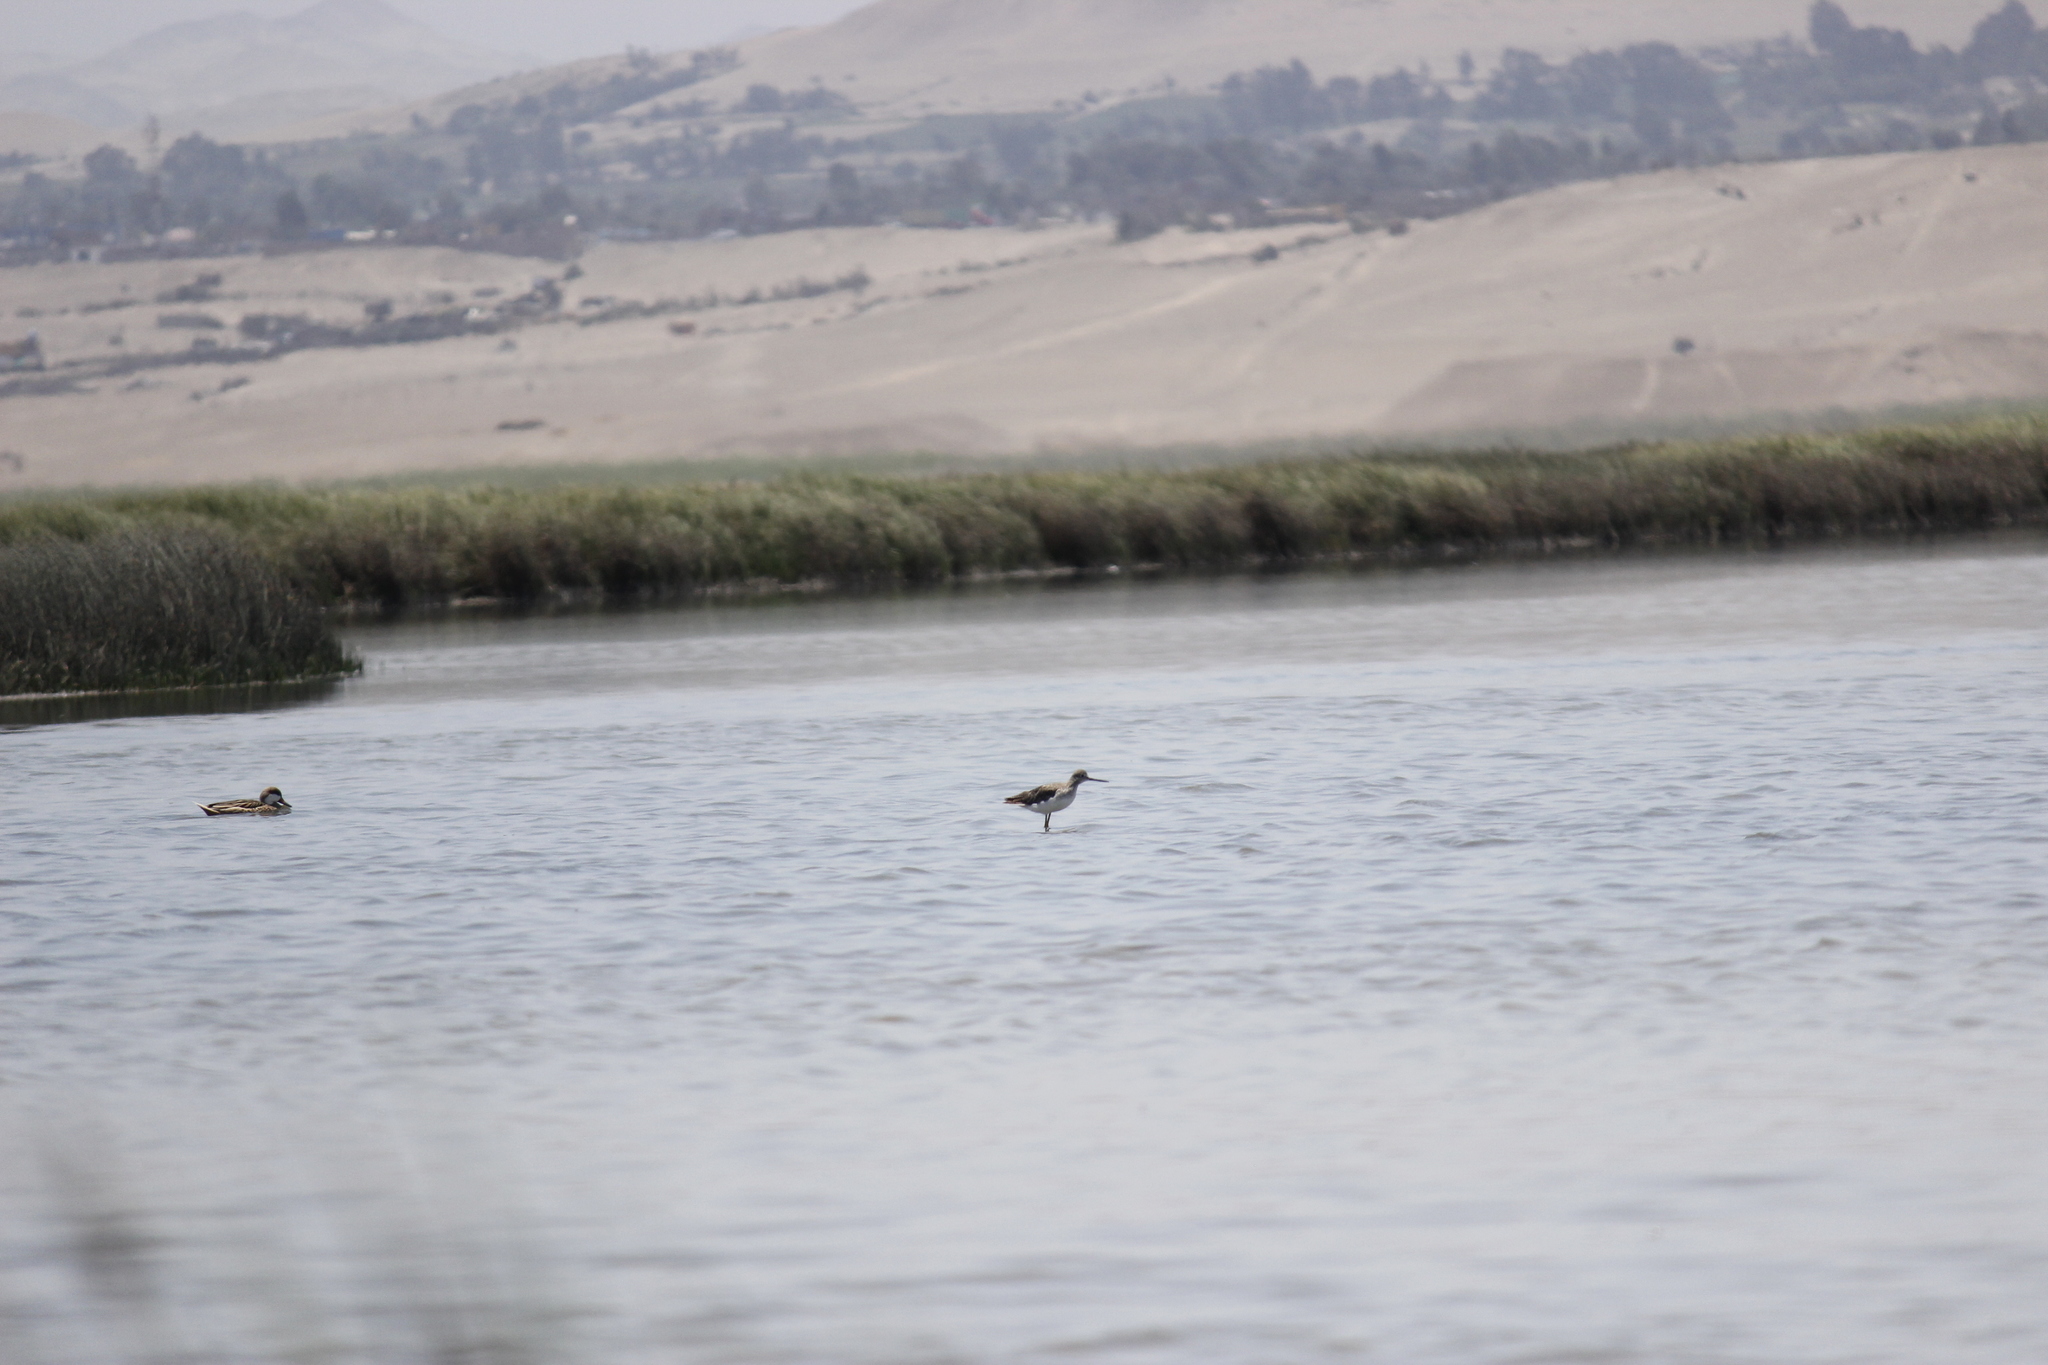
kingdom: Animalia
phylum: Chordata
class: Aves
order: Charadriiformes
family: Scolopacidae
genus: Tringa
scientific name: Tringa melanoleuca
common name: Greater yellowlegs
